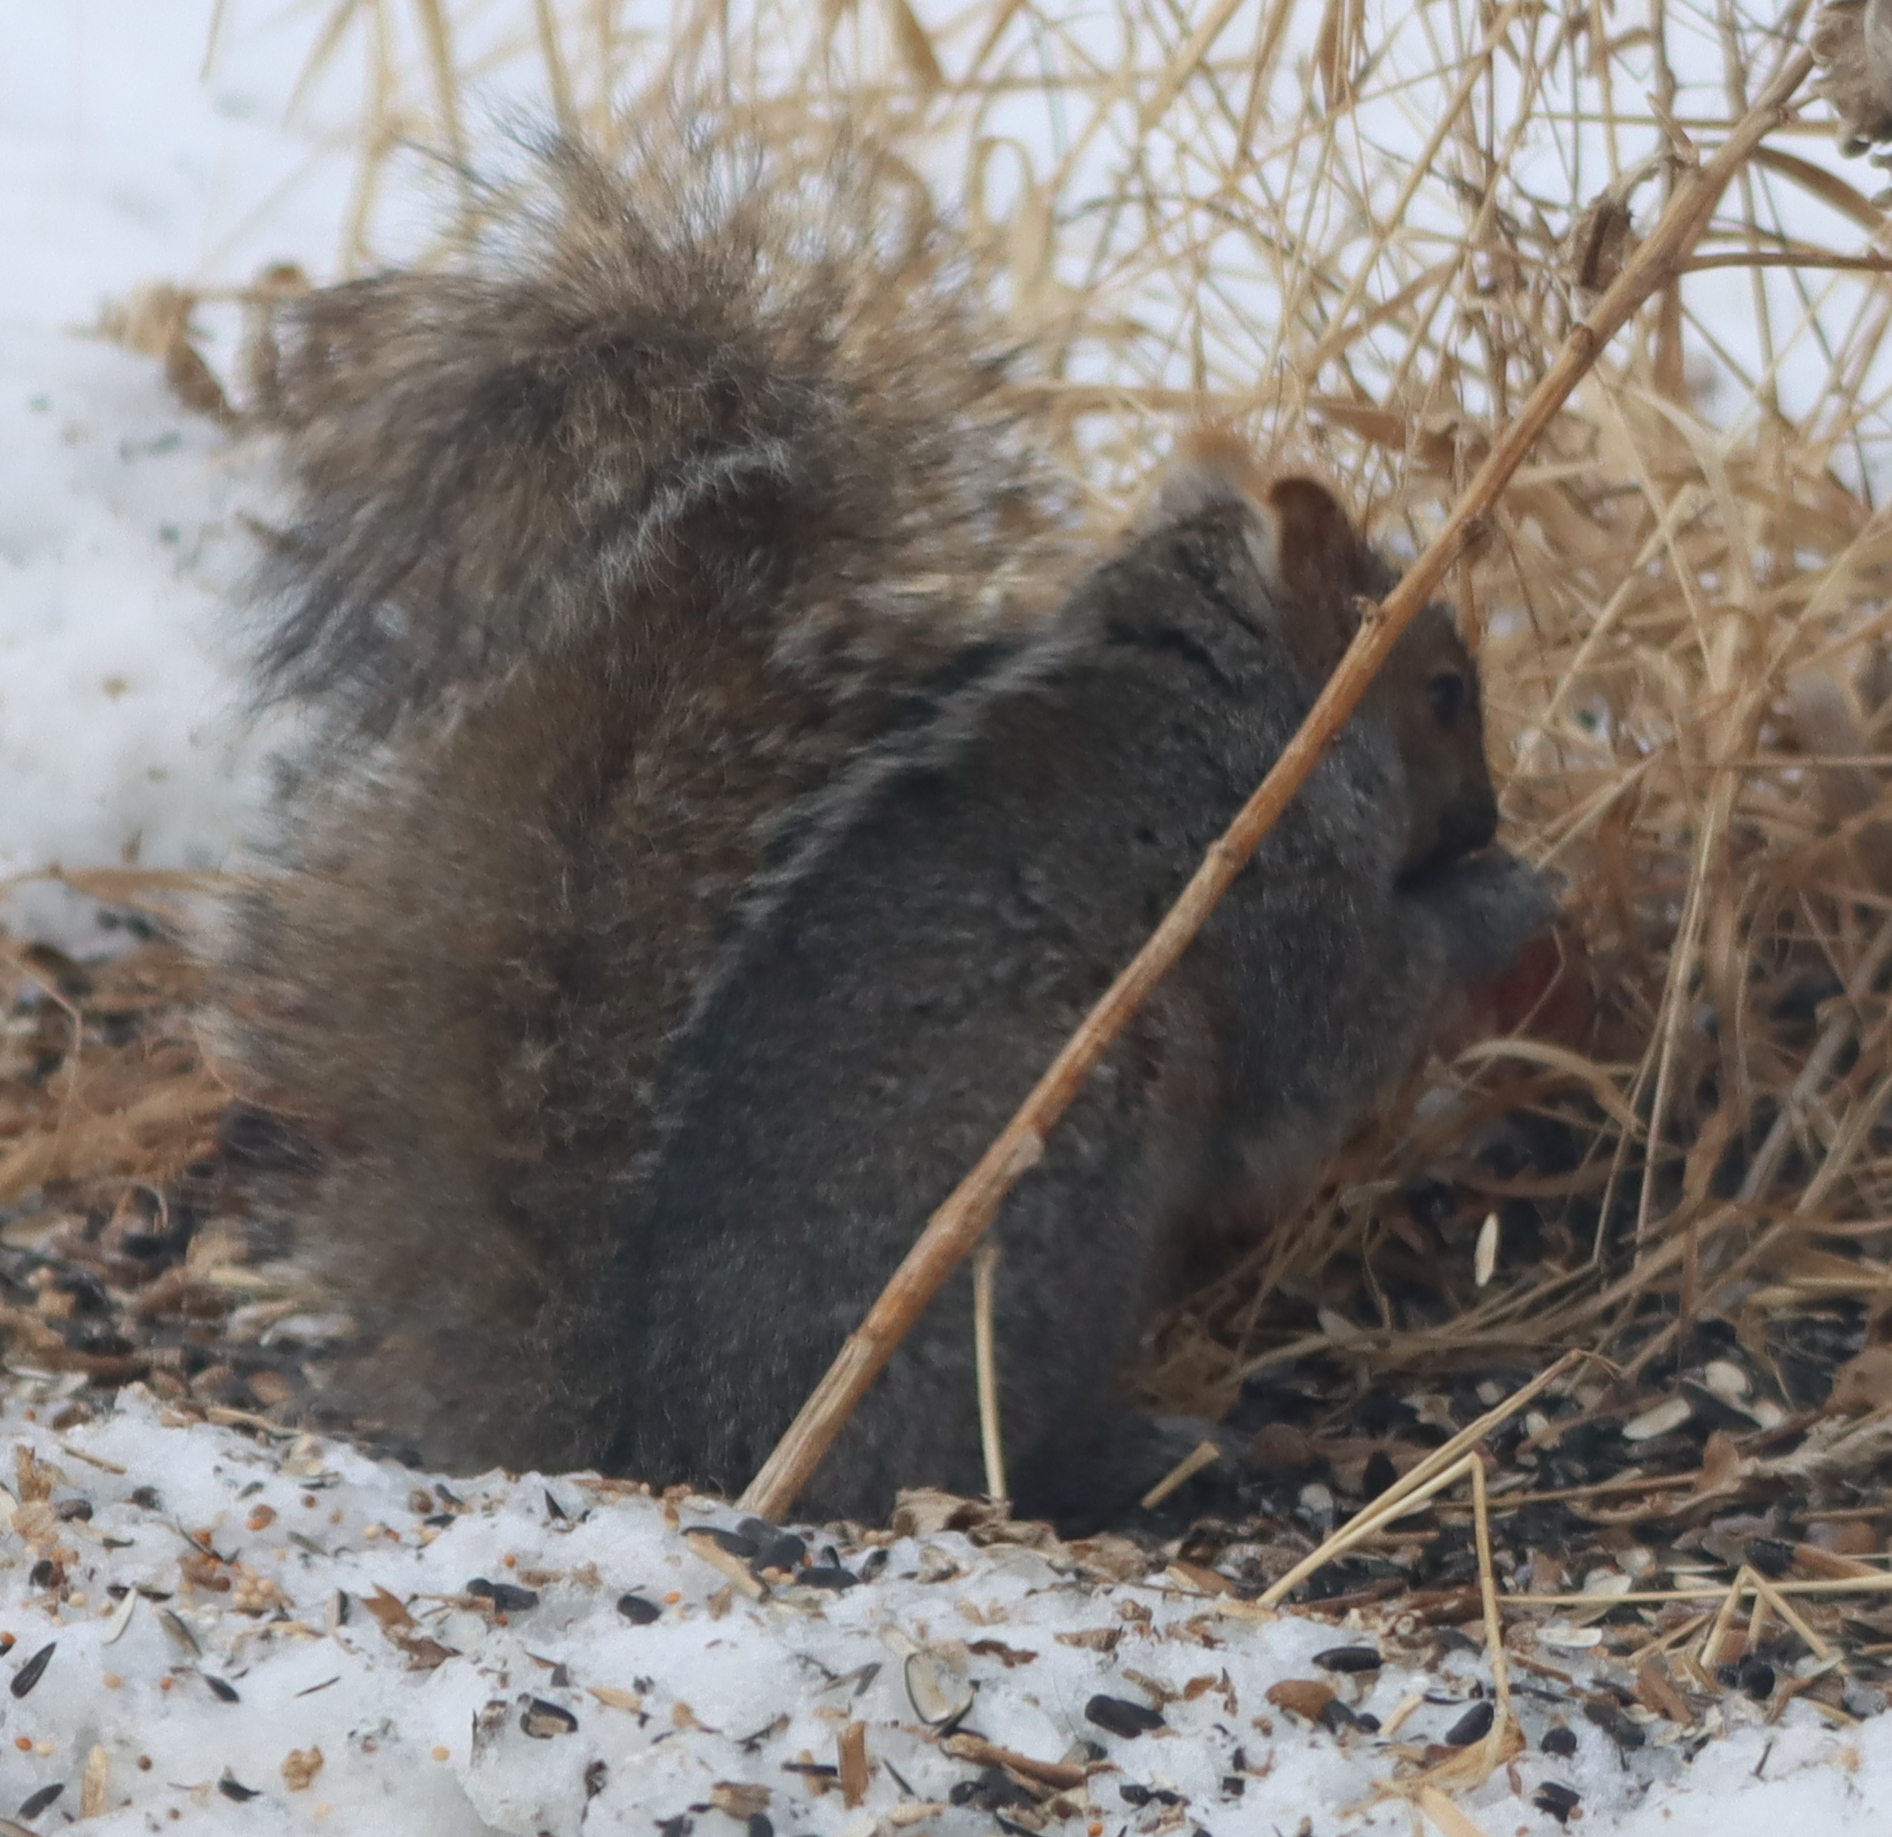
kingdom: Animalia
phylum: Chordata
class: Mammalia
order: Rodentia
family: Sciuridae
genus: Sciurus
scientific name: Sciurus carolinensis
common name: Eastern gray squirrel
